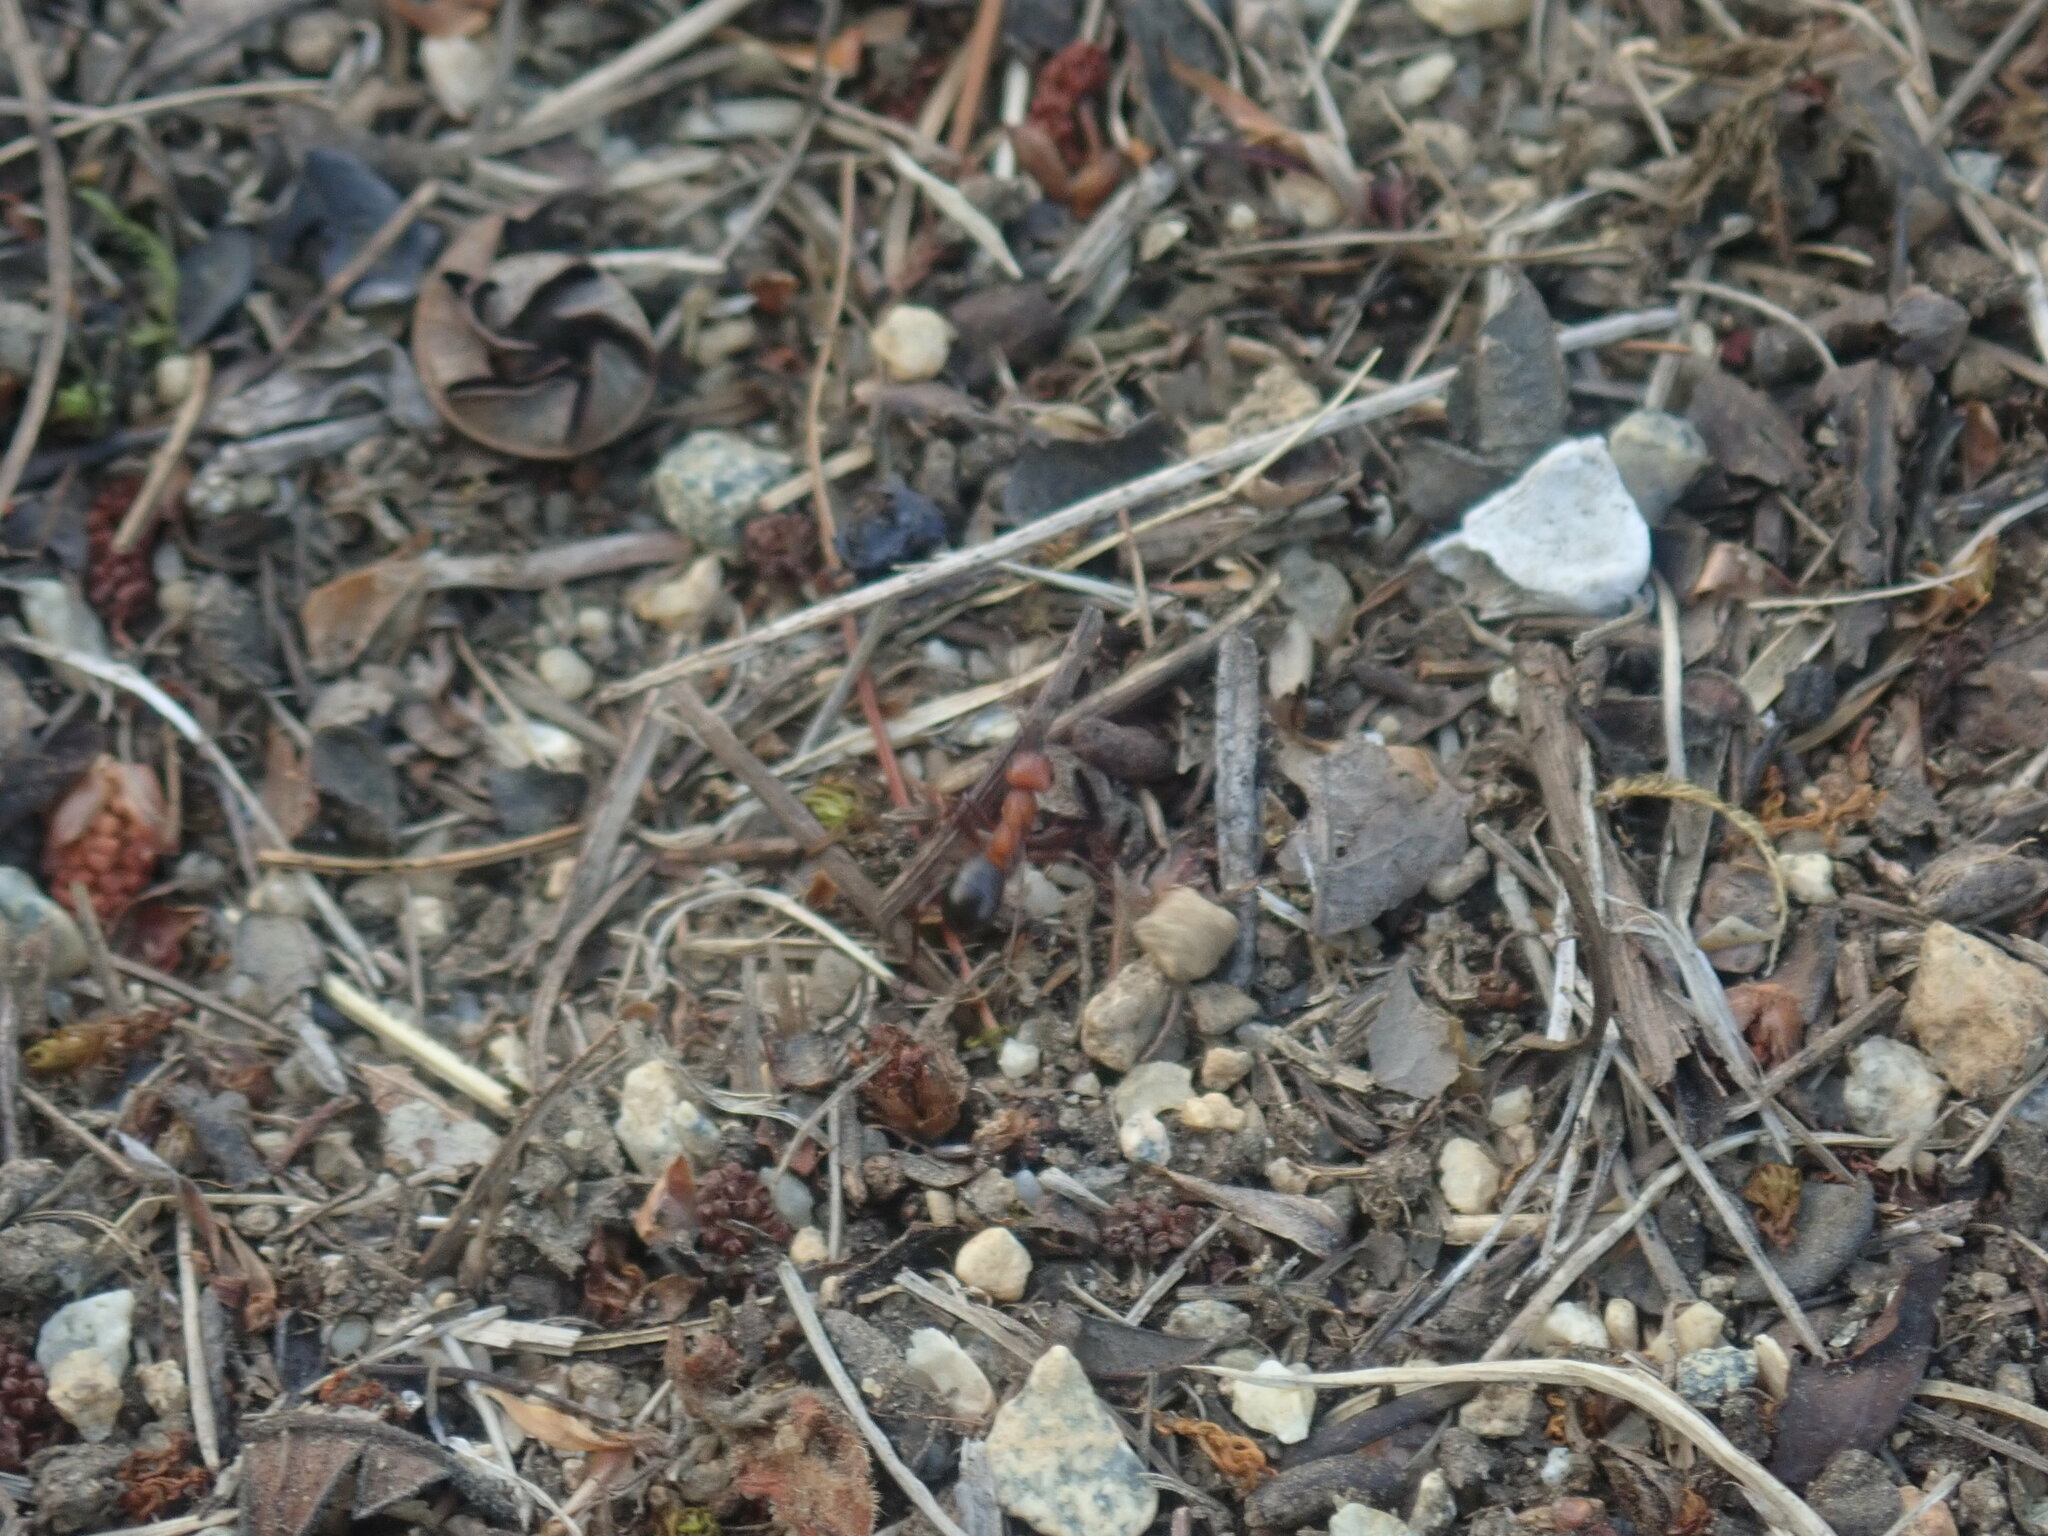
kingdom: Animalia
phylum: Arthropoda
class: Insecta
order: Hymenoptera
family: Formicidae
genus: Formica
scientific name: Formica exsectoides
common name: Allegheny mound ant
